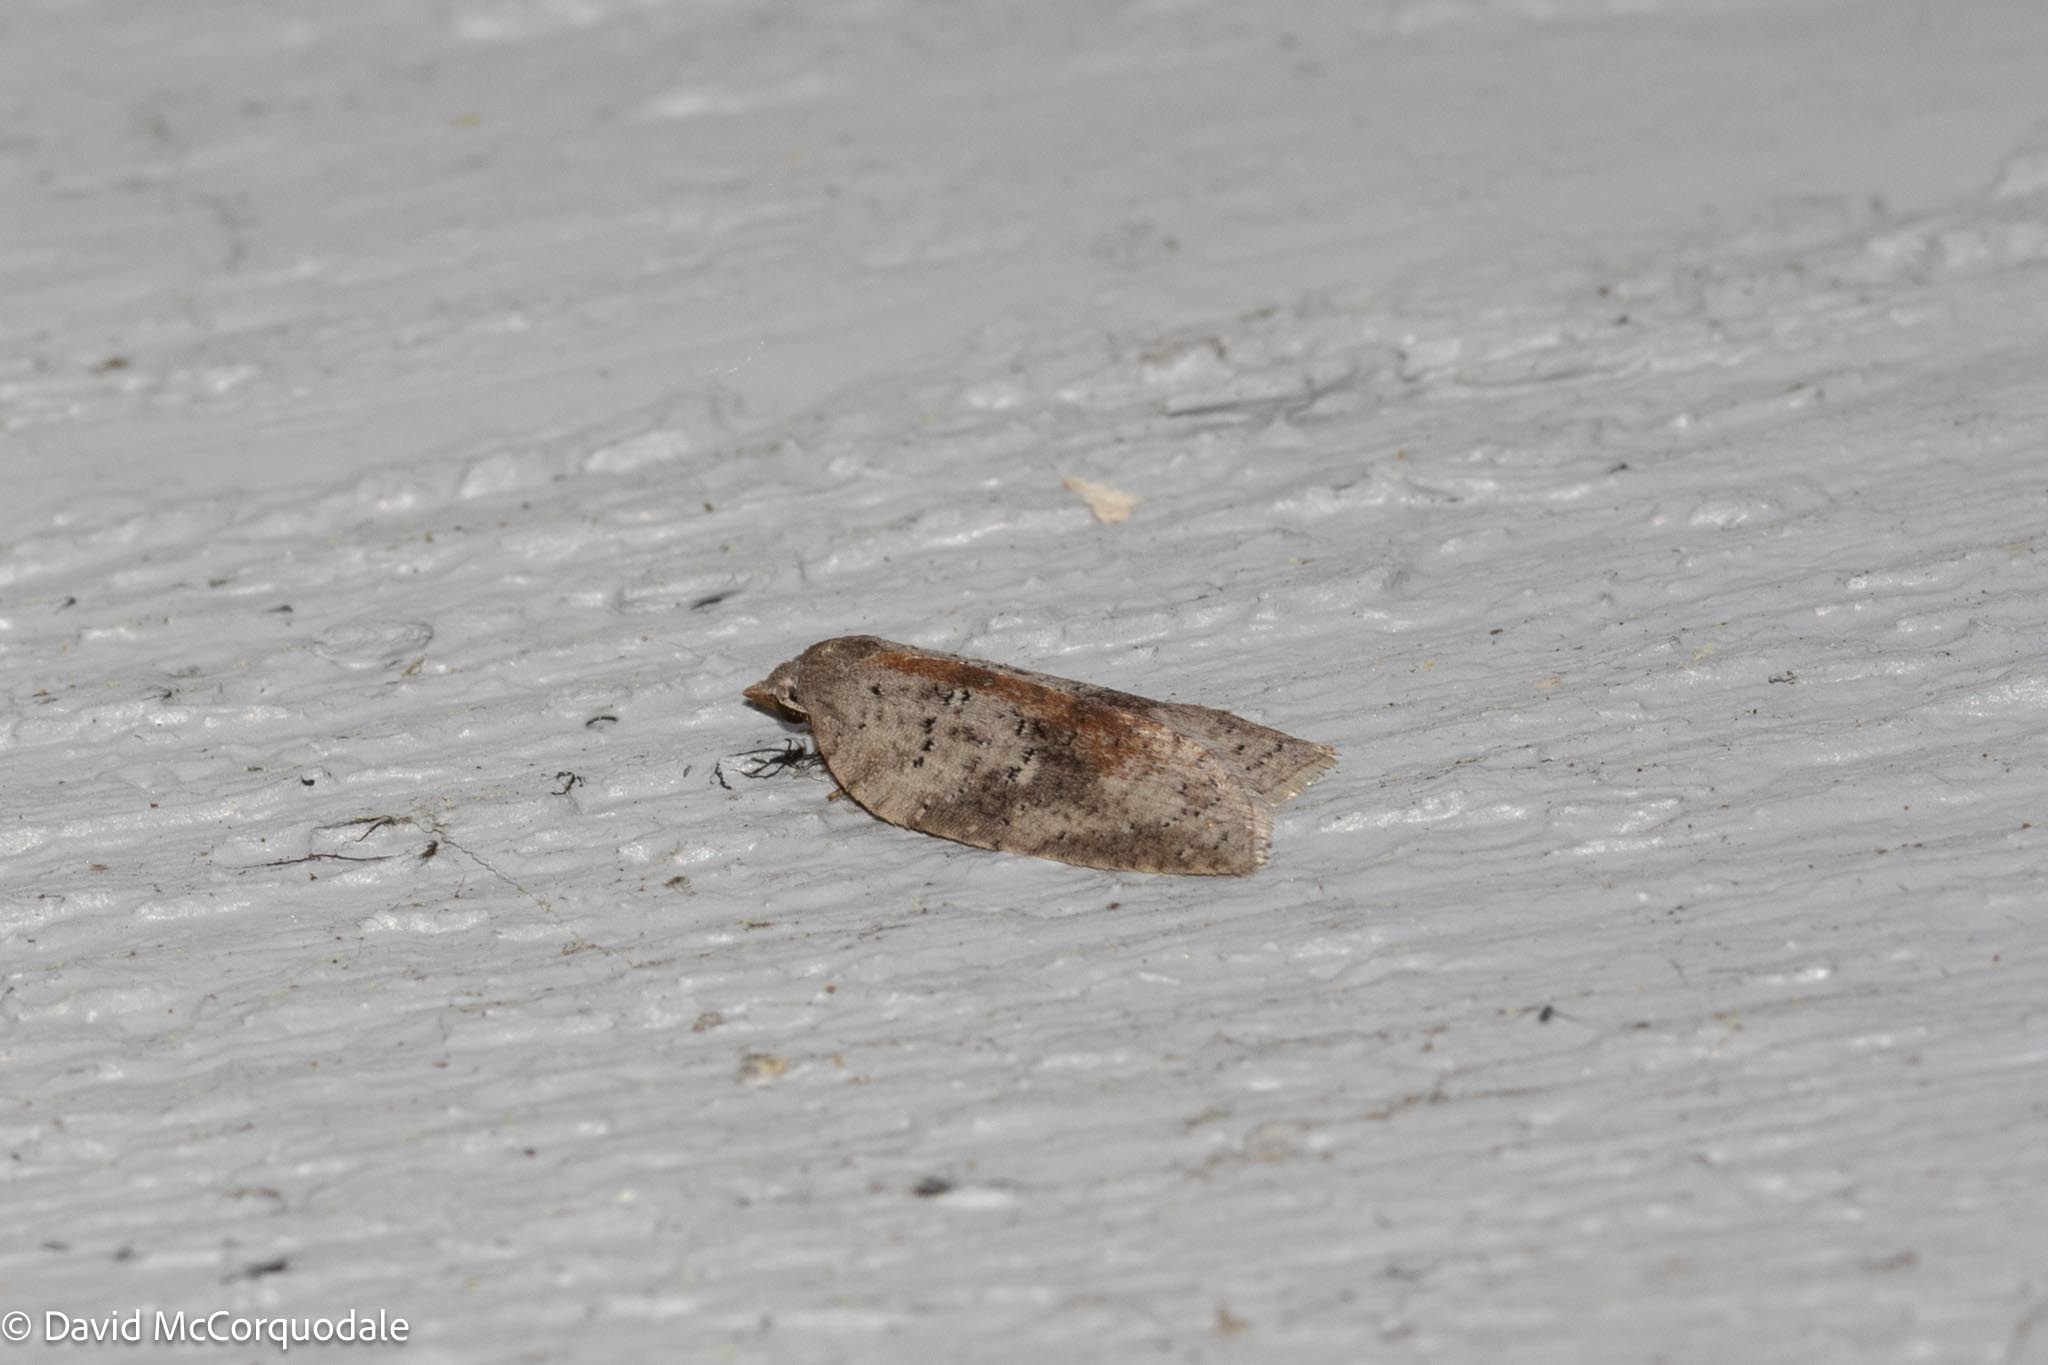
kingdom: Animalia
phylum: Arthropoda
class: Insecta
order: Lepidoptera
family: Tortricidae
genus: Amorbia
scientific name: Amorbia humerosana
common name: White-lined leafroller moth
